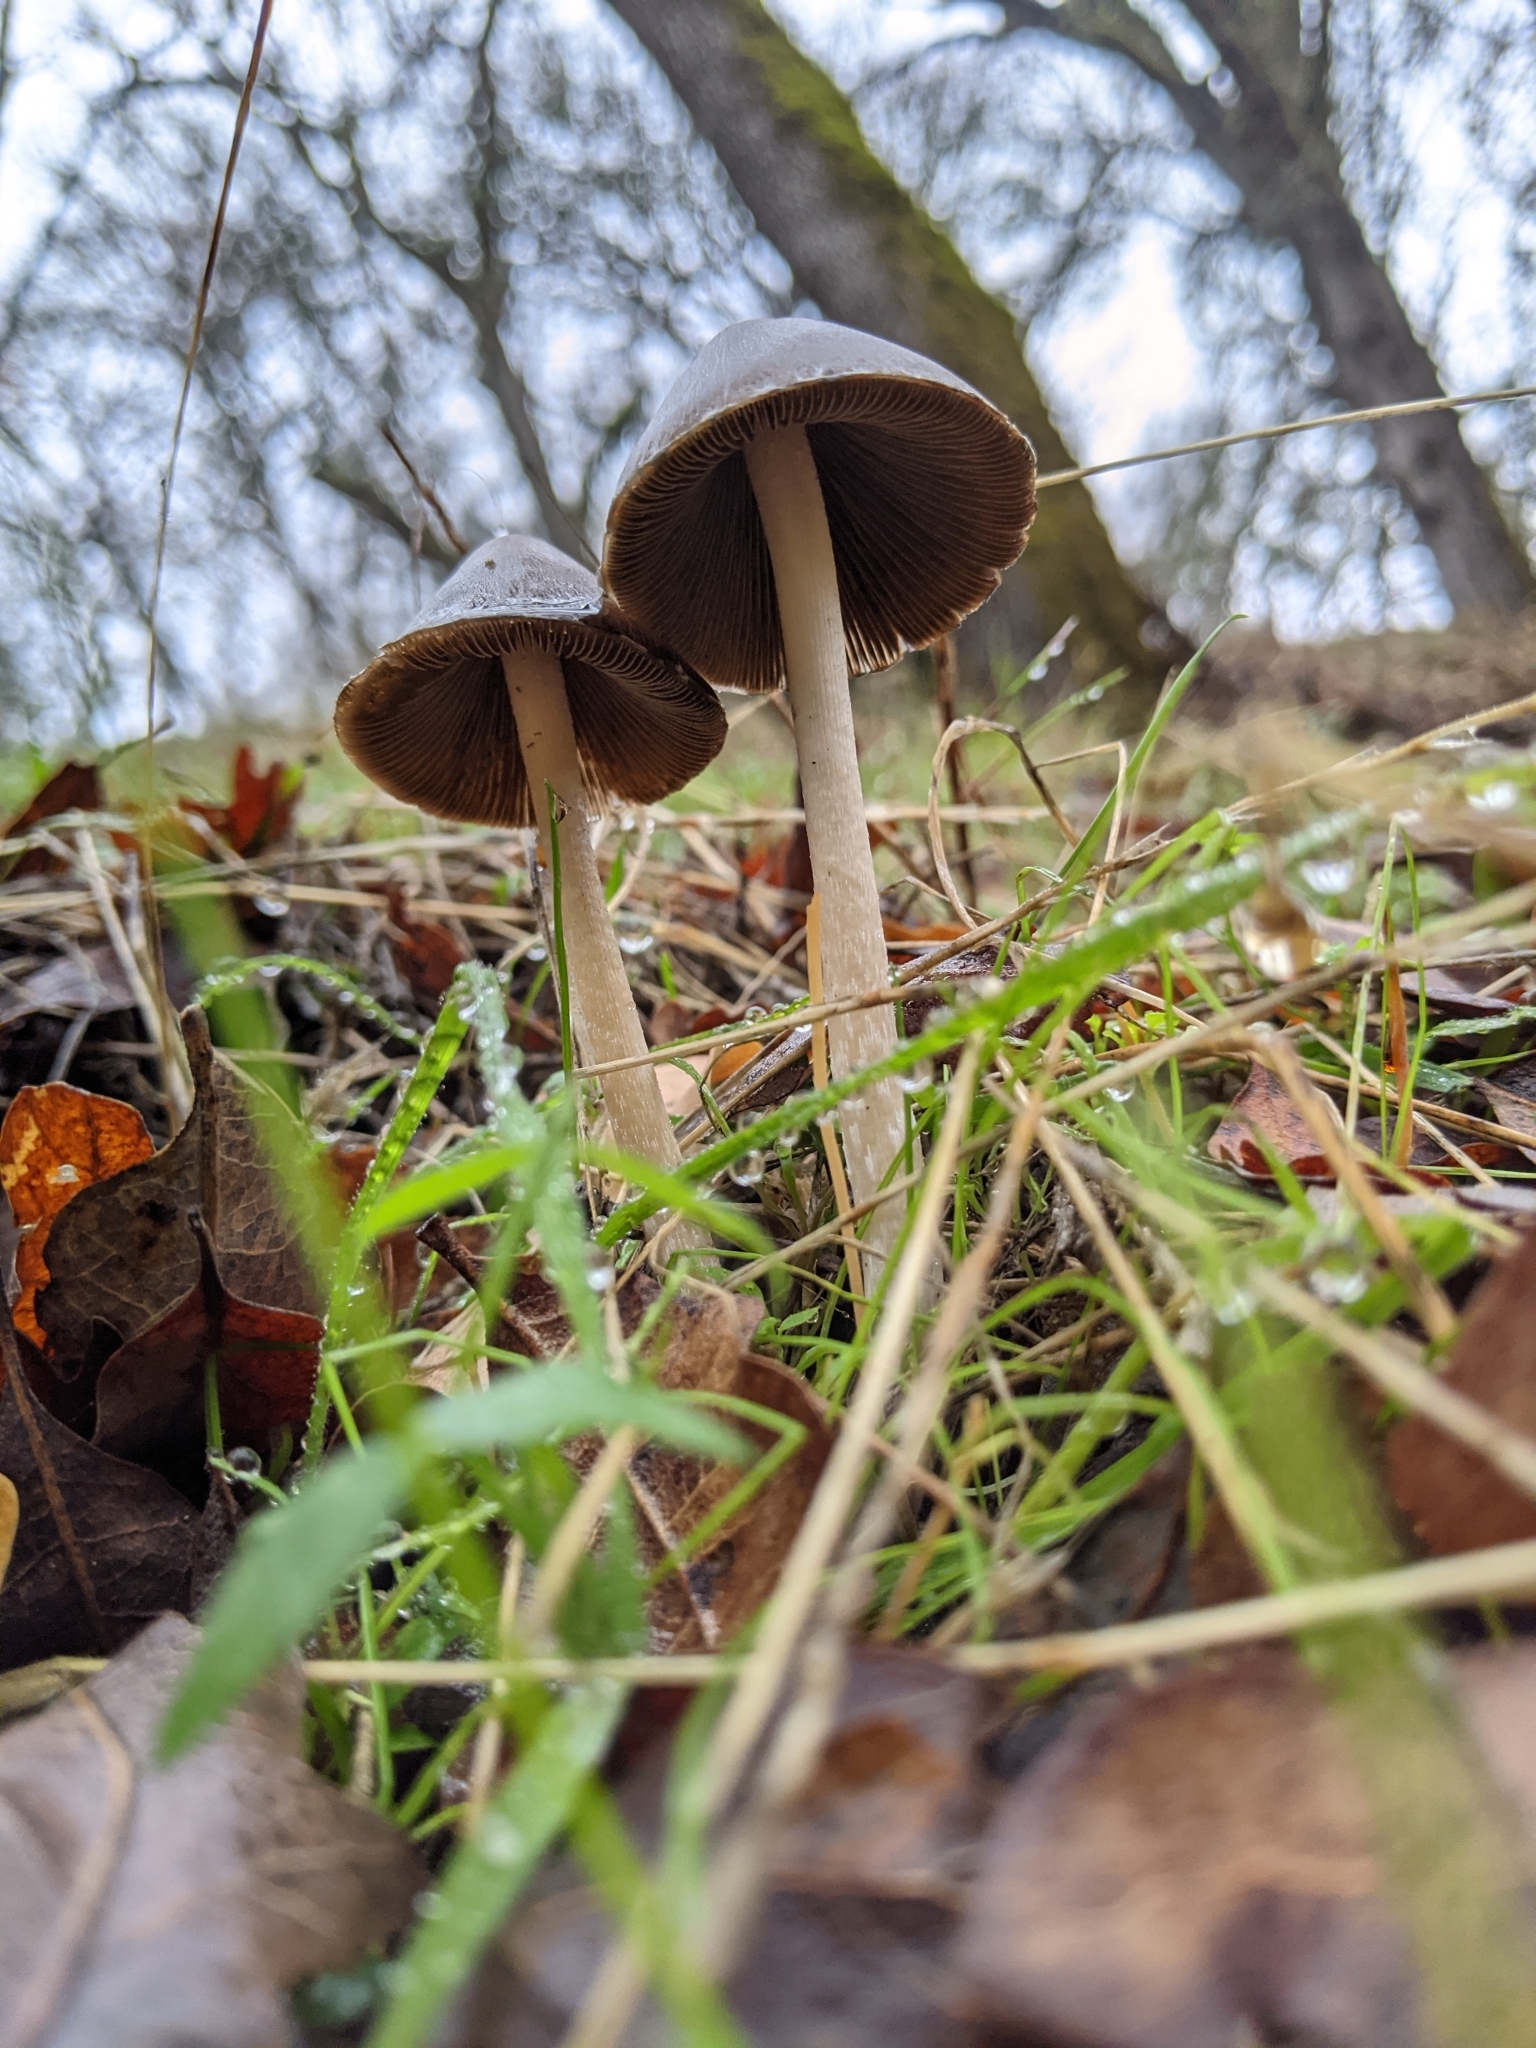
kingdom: Fungi
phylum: Basidiomycota
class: Agaricomycetes
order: Agaricales
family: Psathyrellaceae
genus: Psathyrella
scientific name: Psathyrella longipes
